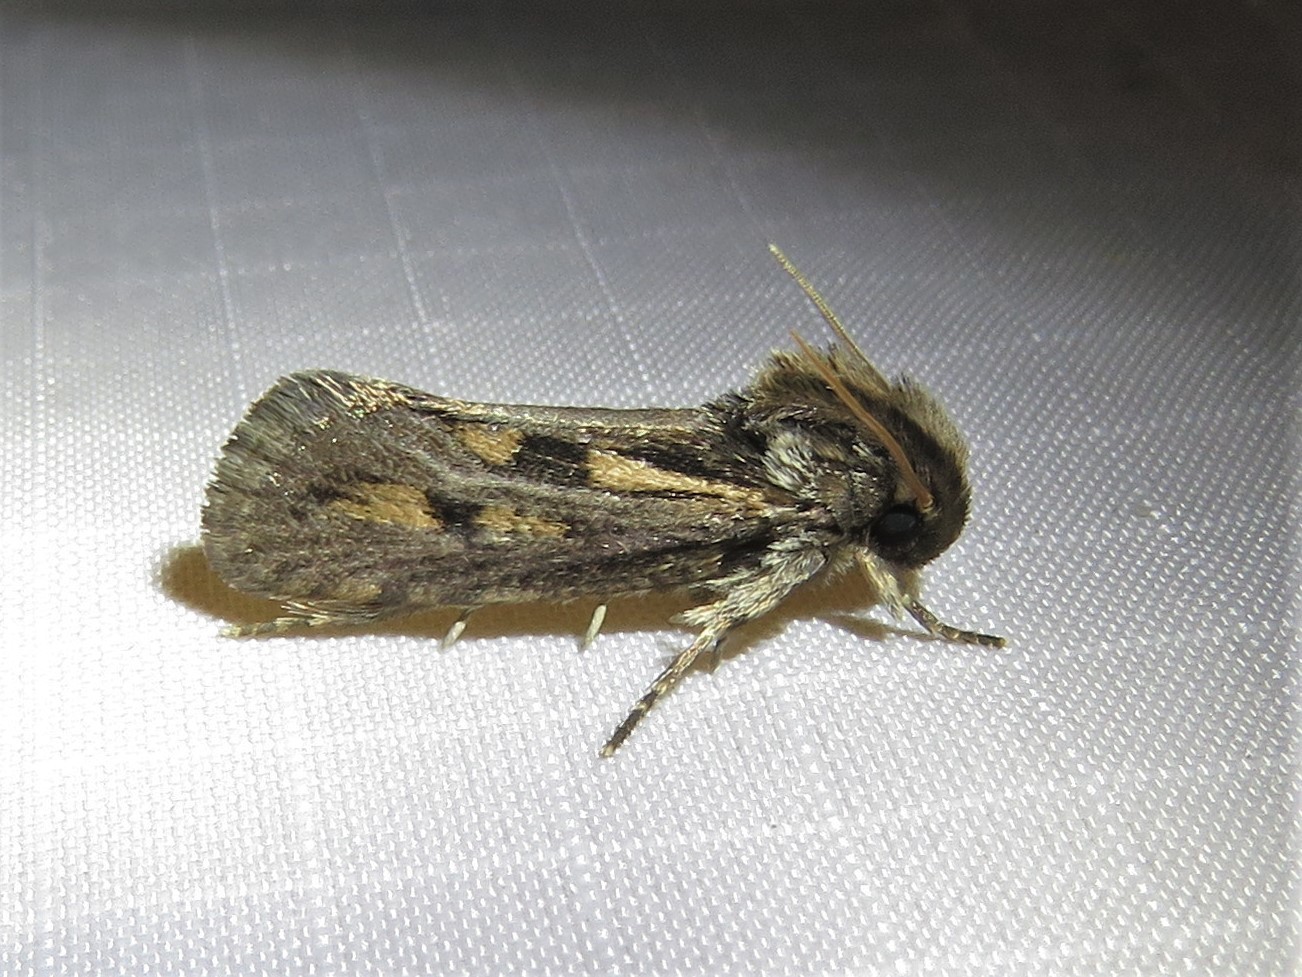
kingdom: Animalia
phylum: Arthropoda
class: Insecta
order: Lepidoptera
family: Tineidae
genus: Acrolophus
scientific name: Acrolophus popeanella
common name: Clemens' grass tubeworm moth
